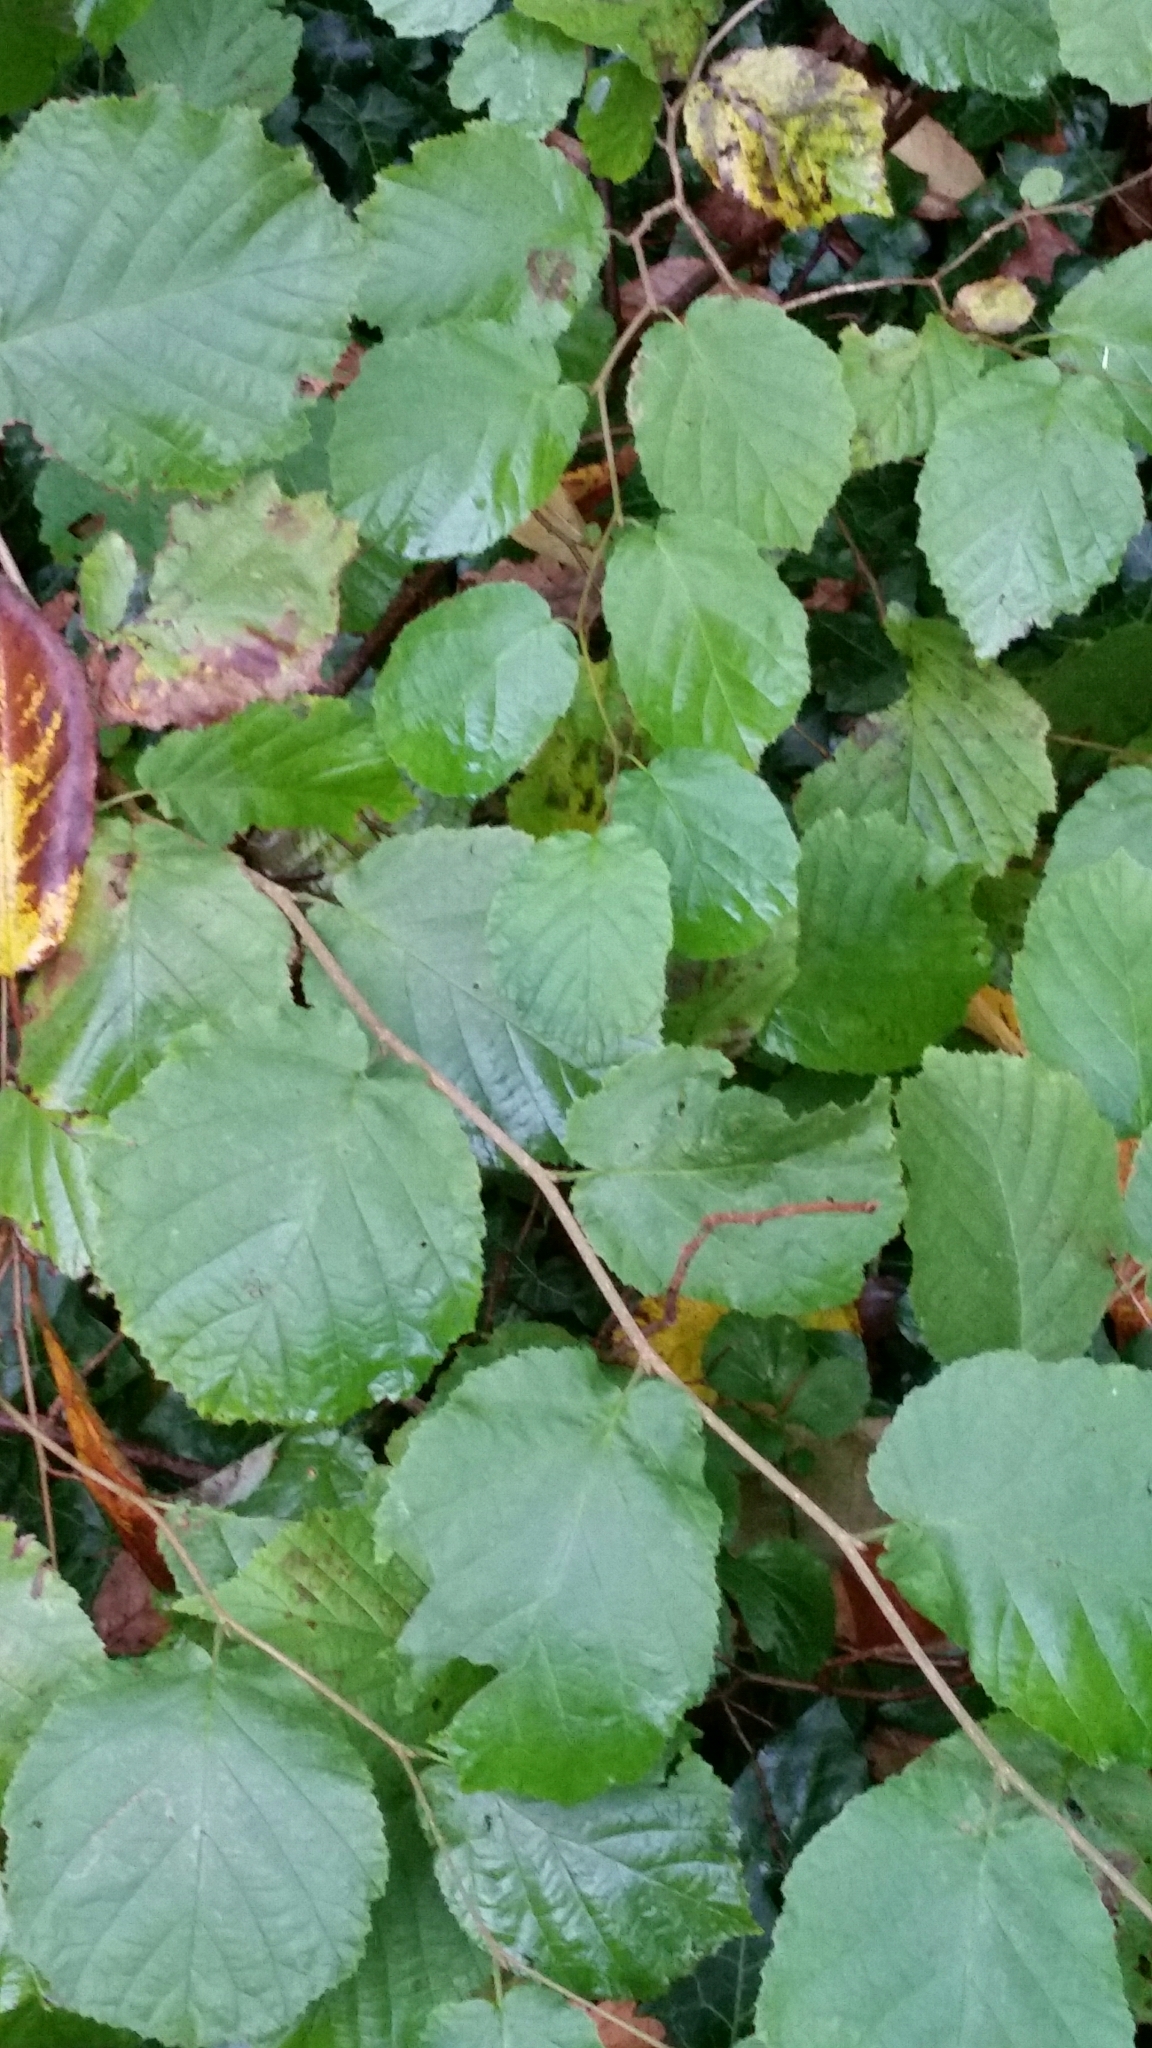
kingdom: Plantae
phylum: Tracheophyta
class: Magnoliopsida
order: Fagales
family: Betulaceae
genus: Corylus
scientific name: Corylus avellana
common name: European hazel
